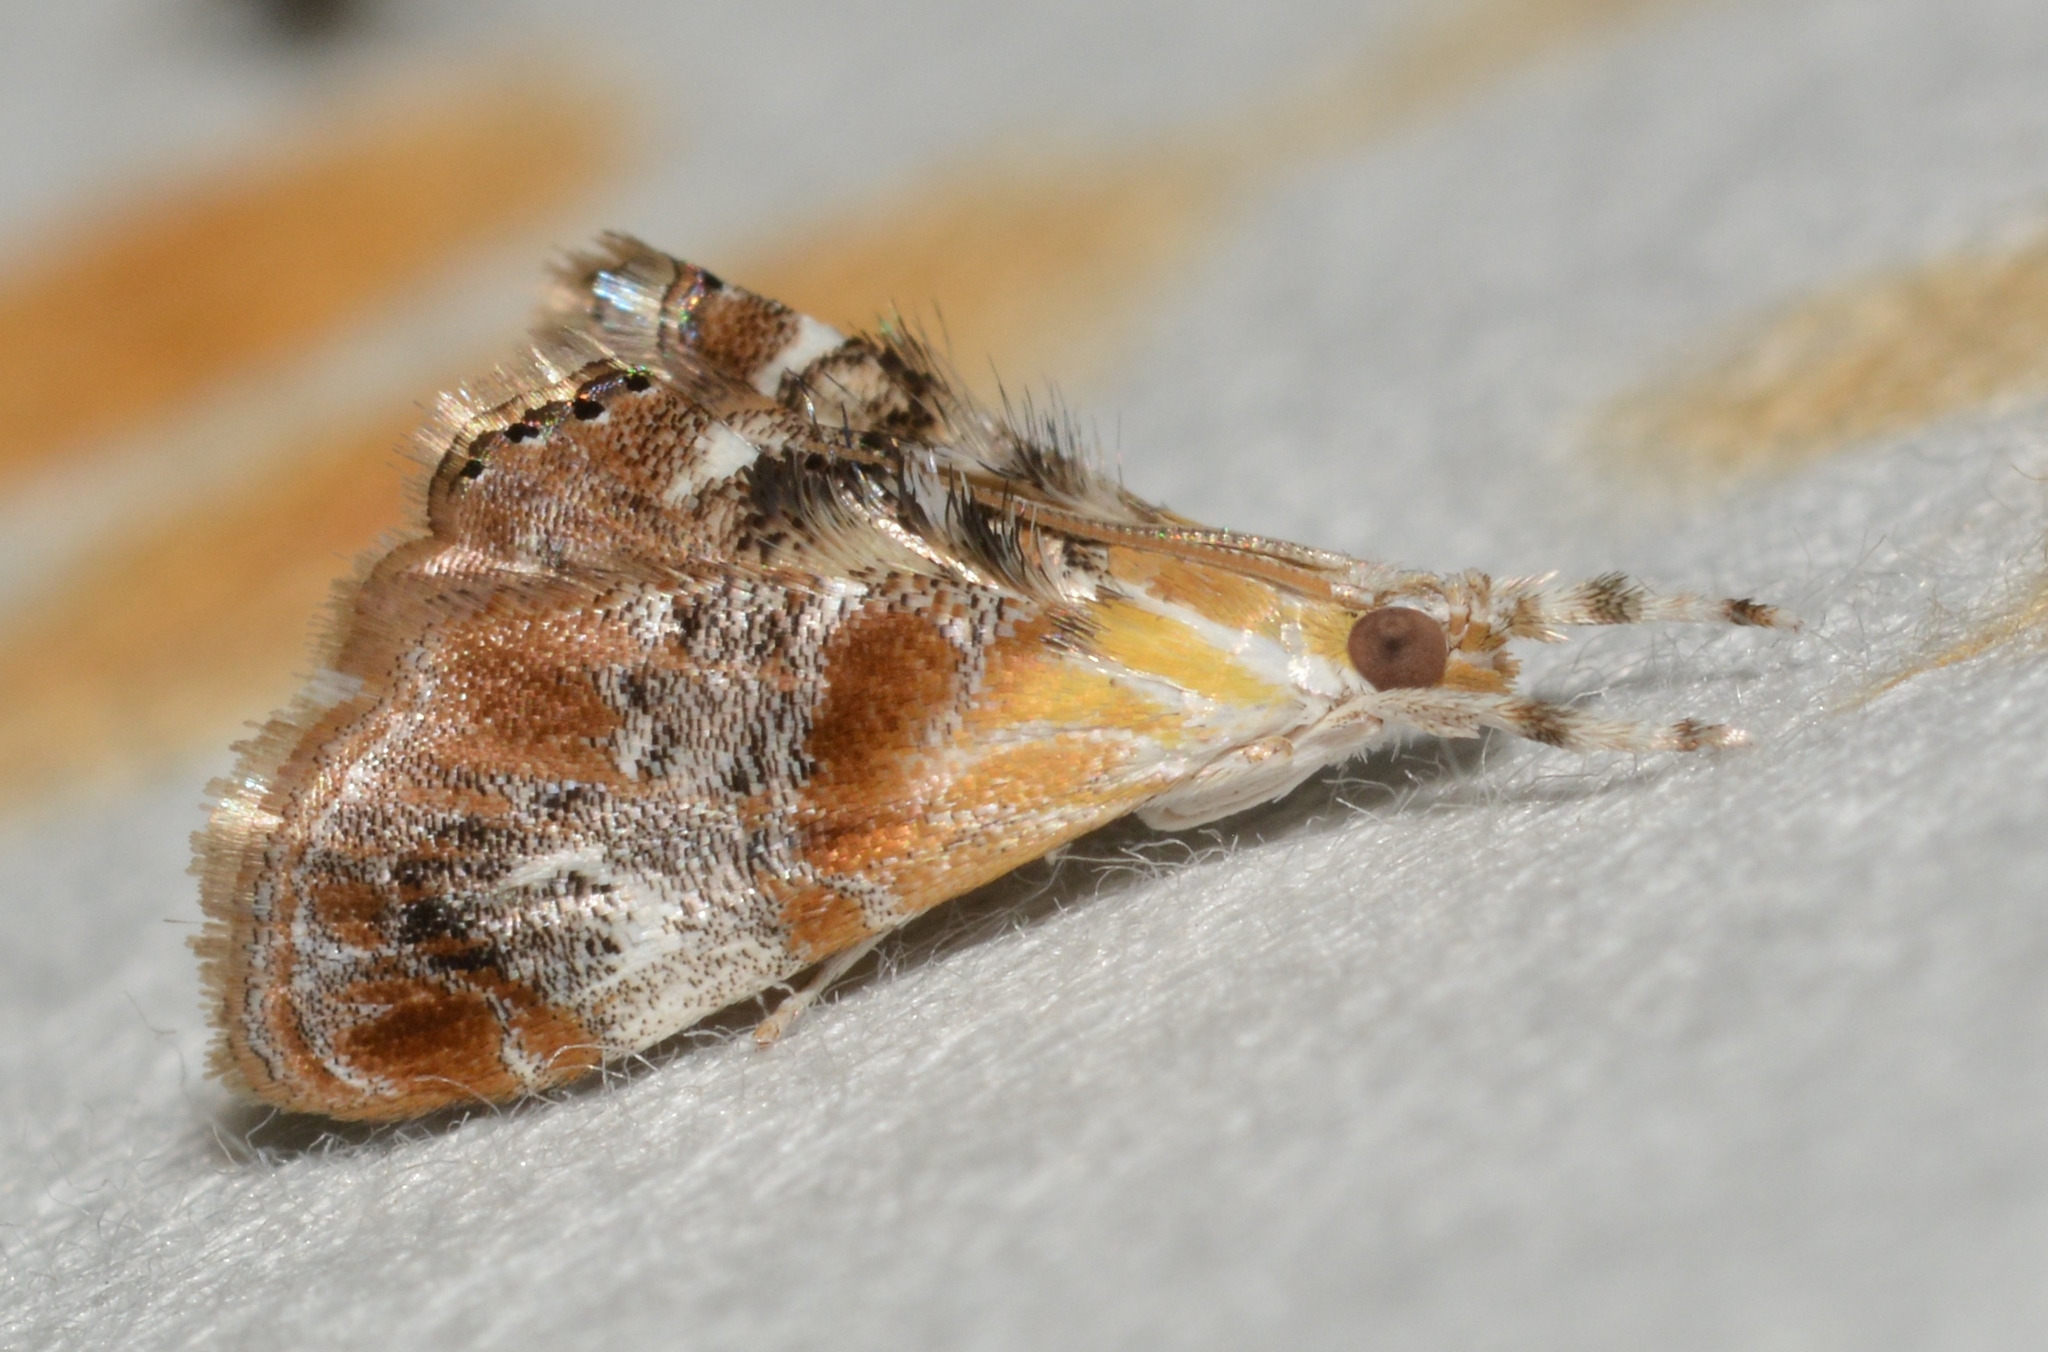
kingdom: Animalia
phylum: Arthropoda
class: Insecta
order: Lepidoptera
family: Crambidae
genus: Dicymolomia
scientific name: Dicymolomia julianalis
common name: Julia's dicymolomia moth
